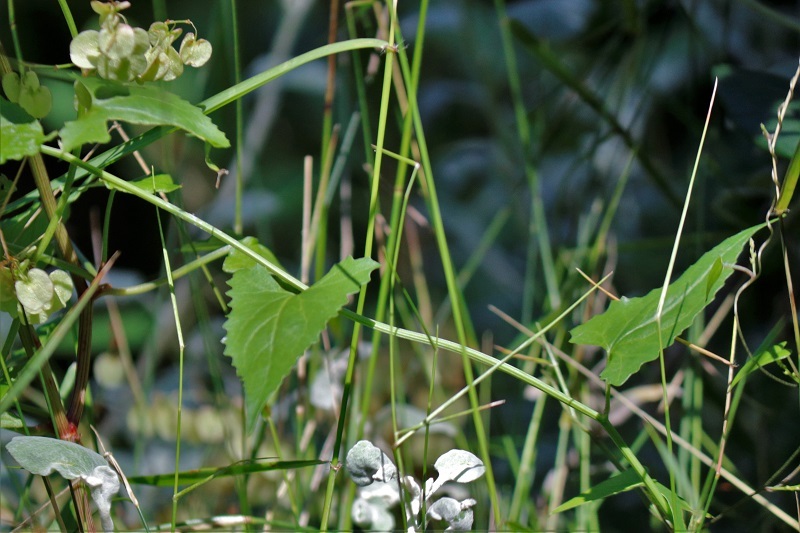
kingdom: Plantae
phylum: Tracheophyta
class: Magnoliopsida
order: Caryophyllales
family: Polygonaceae
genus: Rumex
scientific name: Rumex sagittatus
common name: Climbing dock
